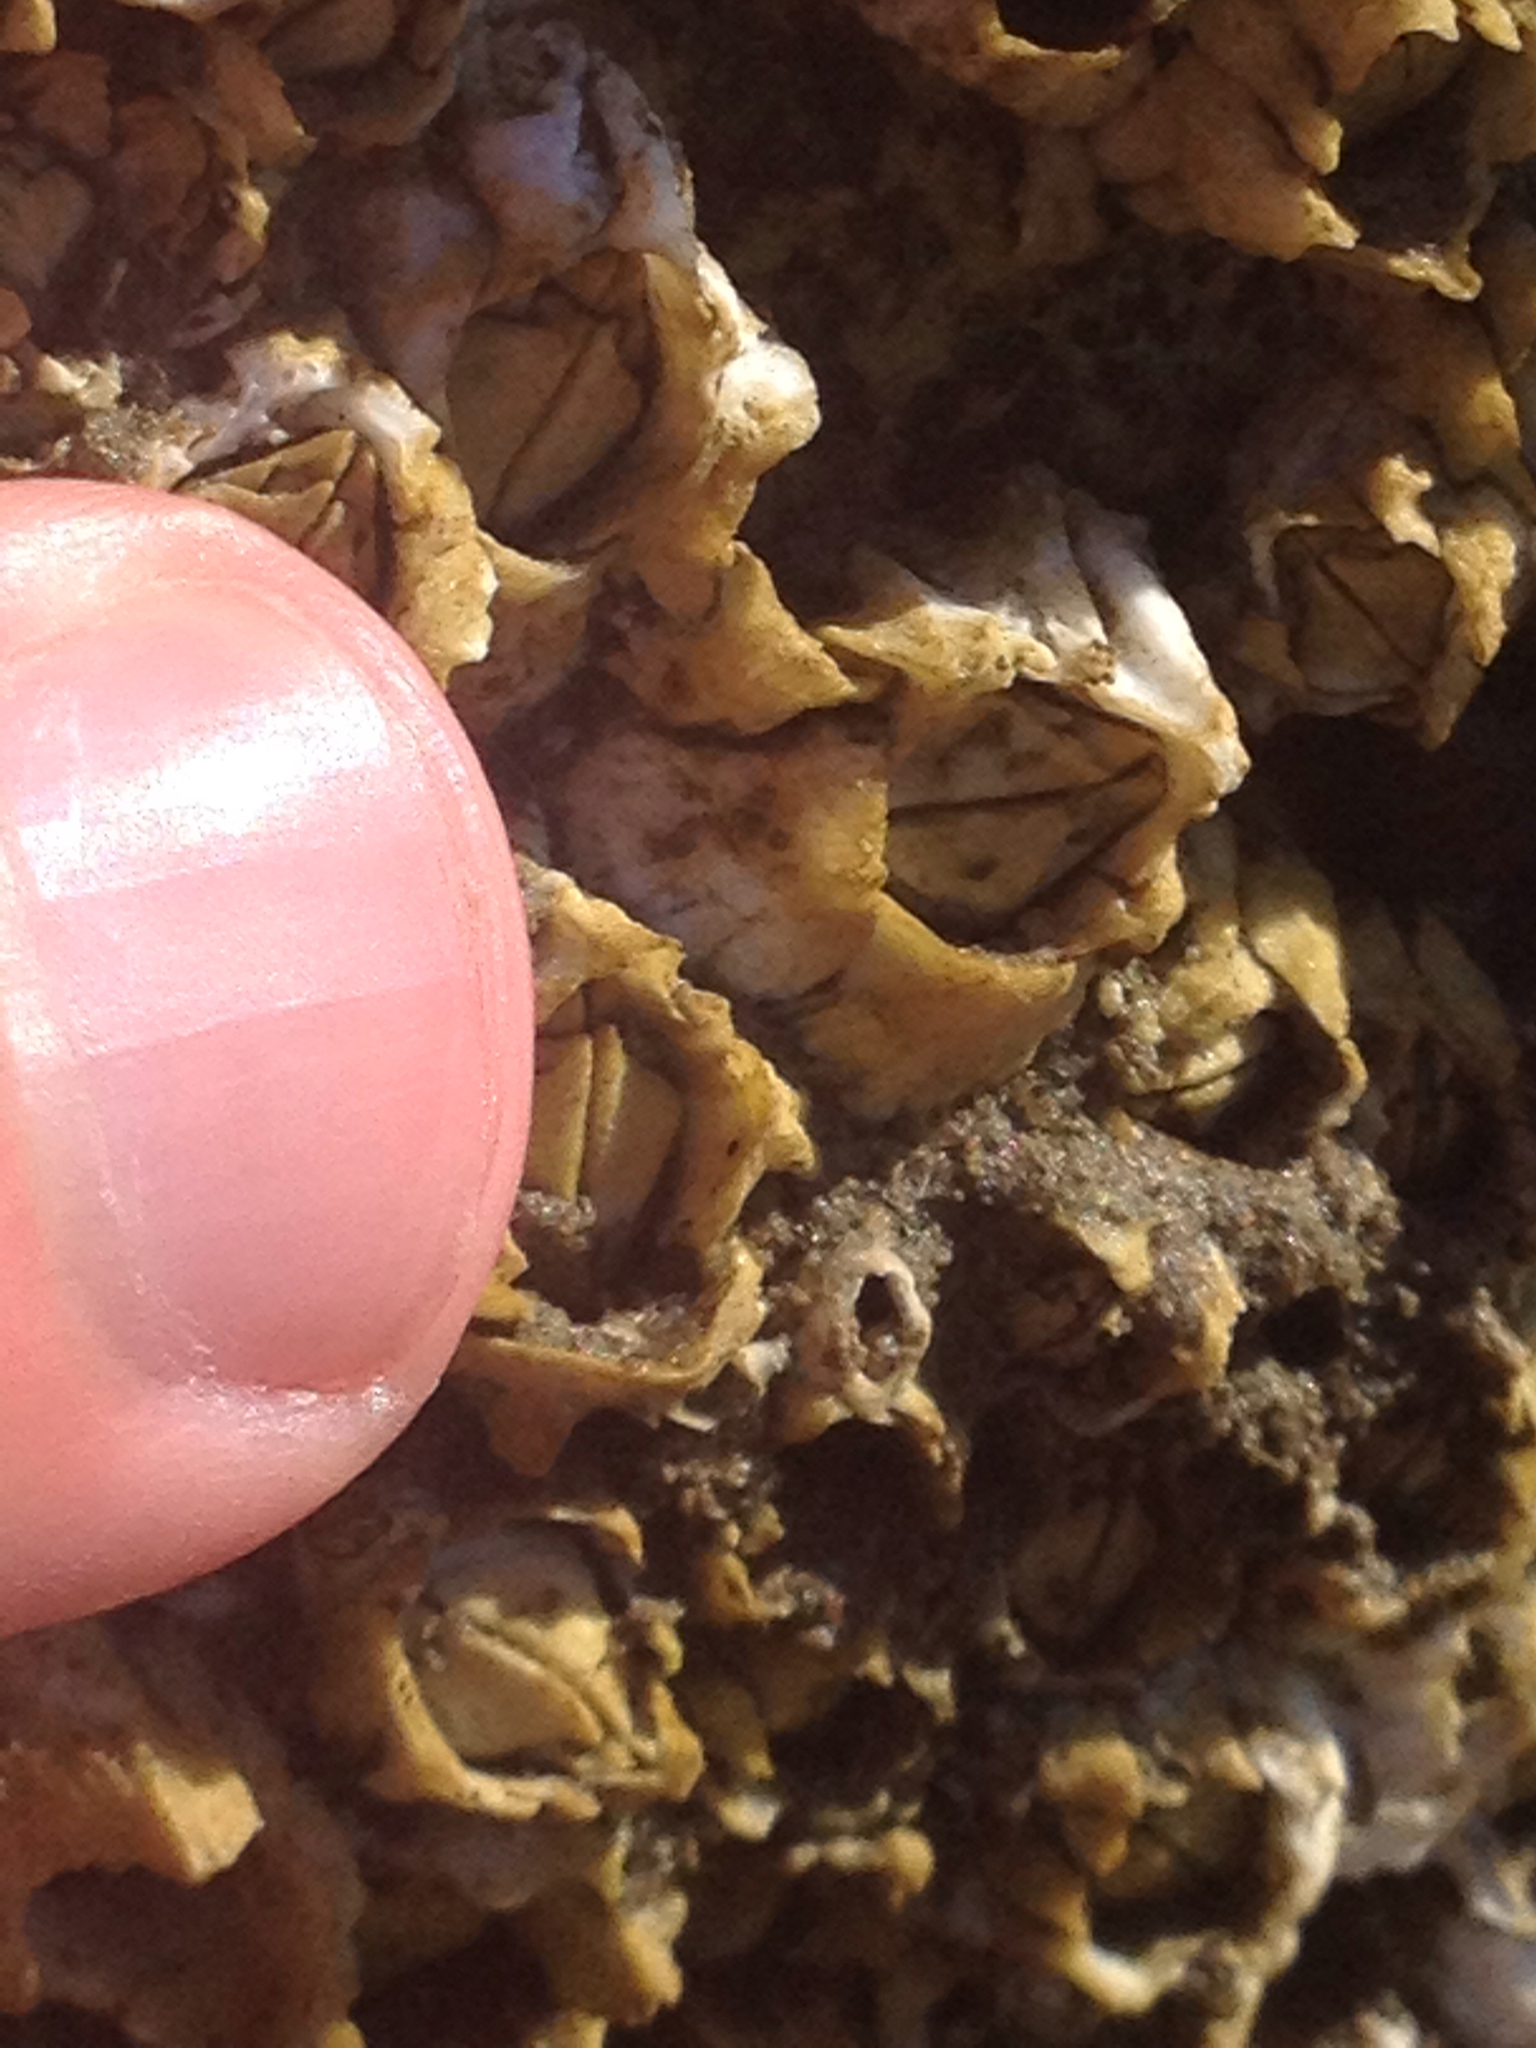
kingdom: Animalia
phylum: Arthropoda
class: Maxillopoda
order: Sessilia
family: Archaeobalanidae
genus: Semibalanus
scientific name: Semibalanus balanoides
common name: Acorn barnacle
